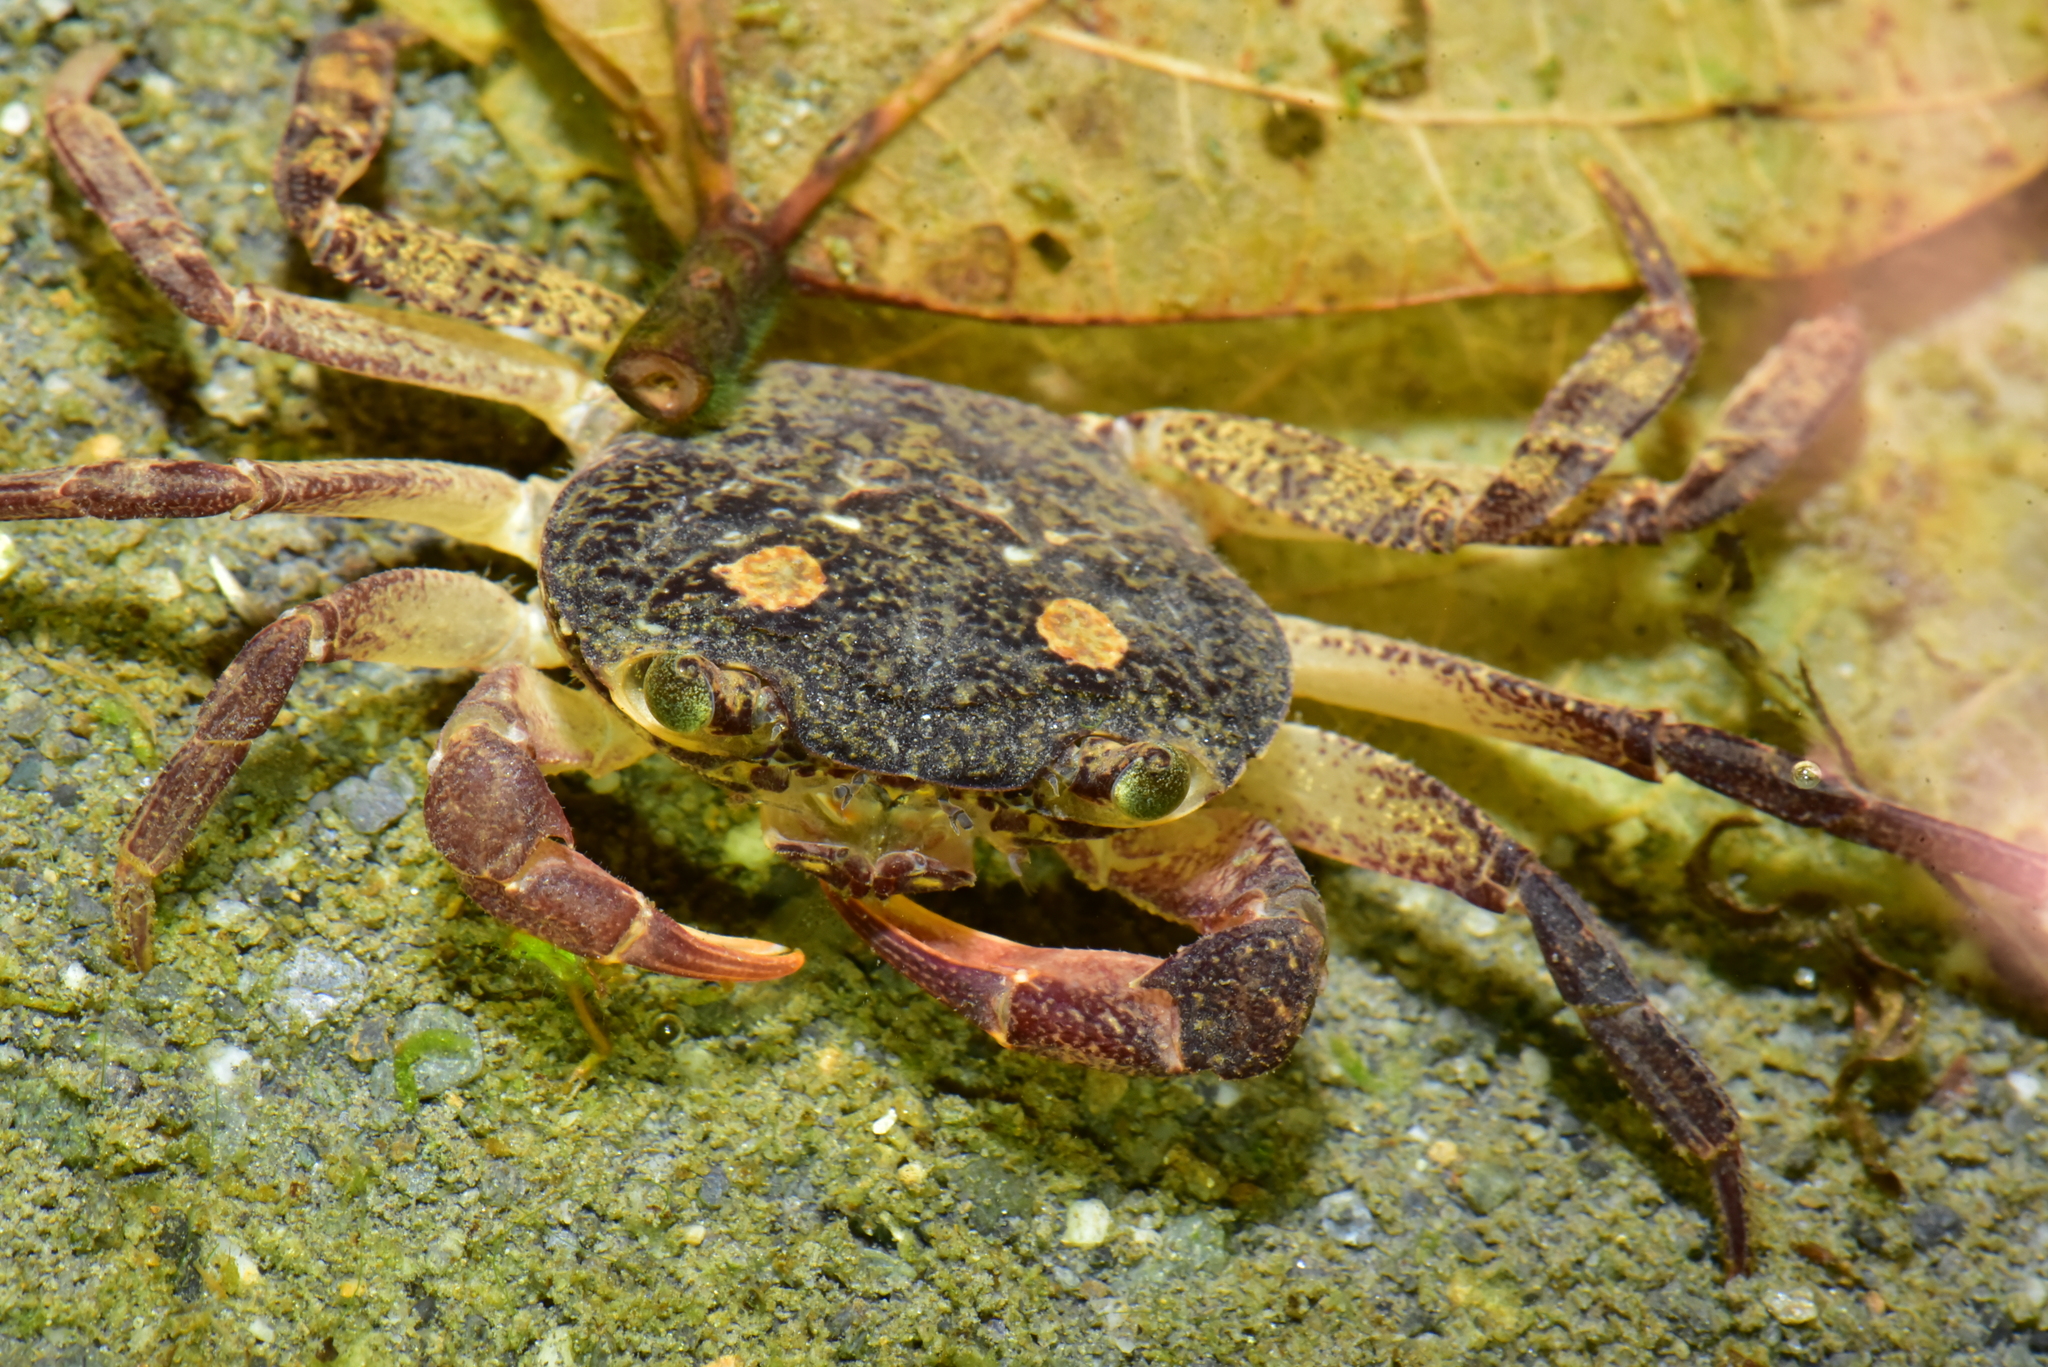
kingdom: Animalia
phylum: Arthropoda
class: Malacostraca
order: Decapoda
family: Potamidae
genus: Candidiopotamon
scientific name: Candidiopotamon rathbuni
